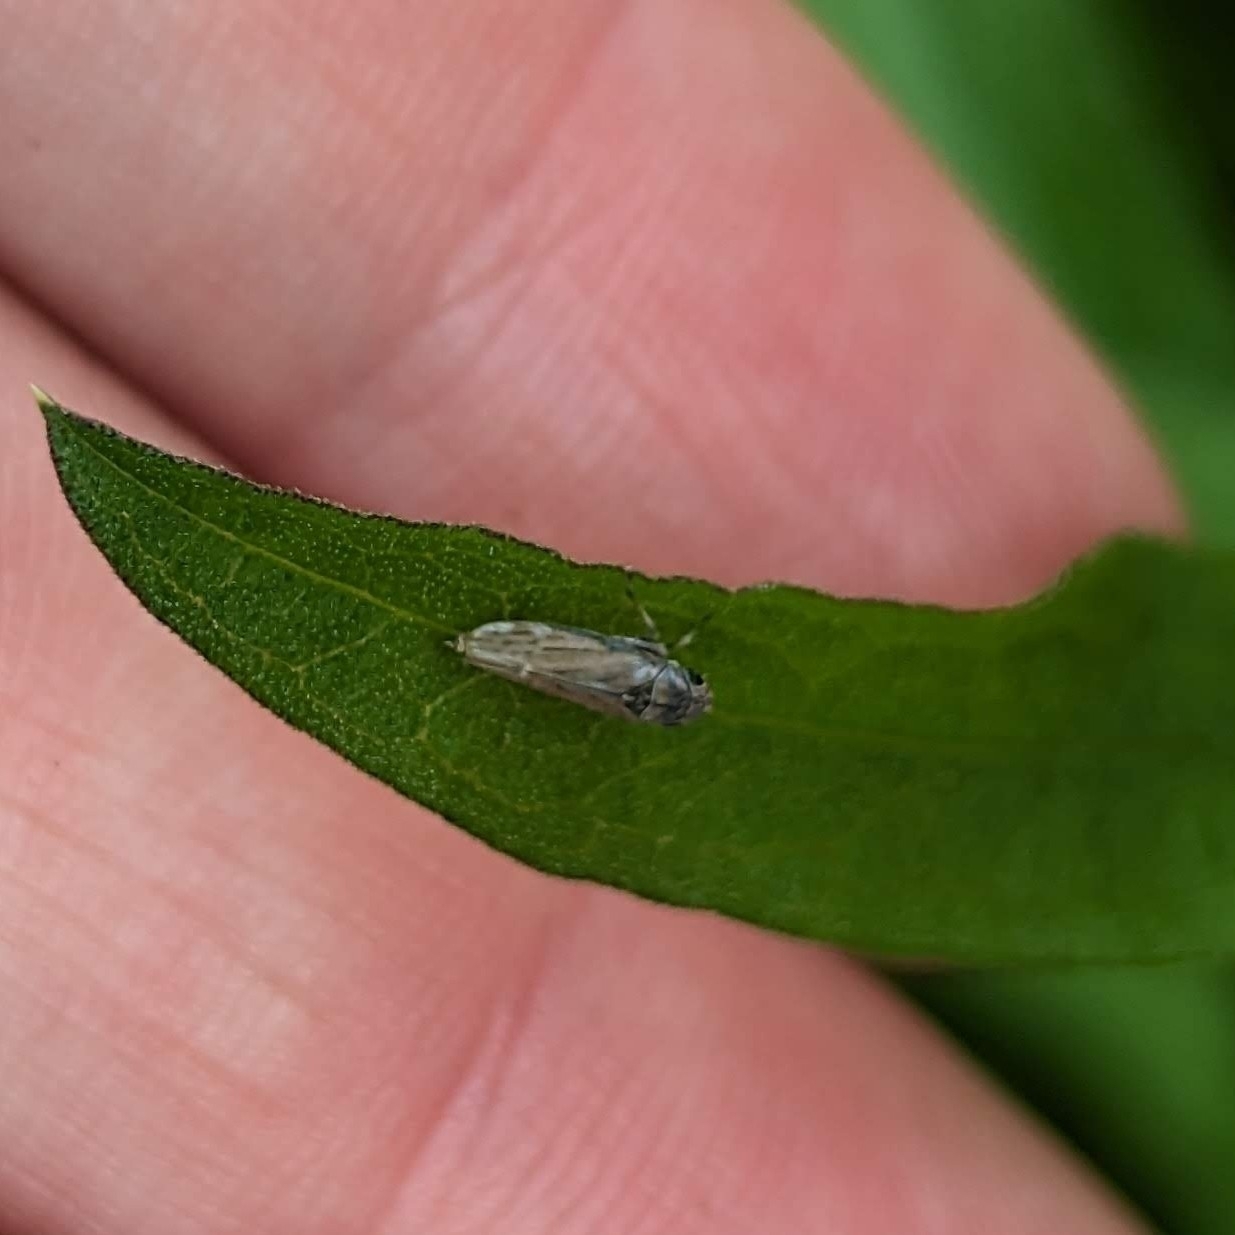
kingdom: Animalia
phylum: Arthropoda
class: Insecta
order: Hemiptera
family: Cicadellidae
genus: Neokolla
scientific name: Neokolla hieroglyphica
